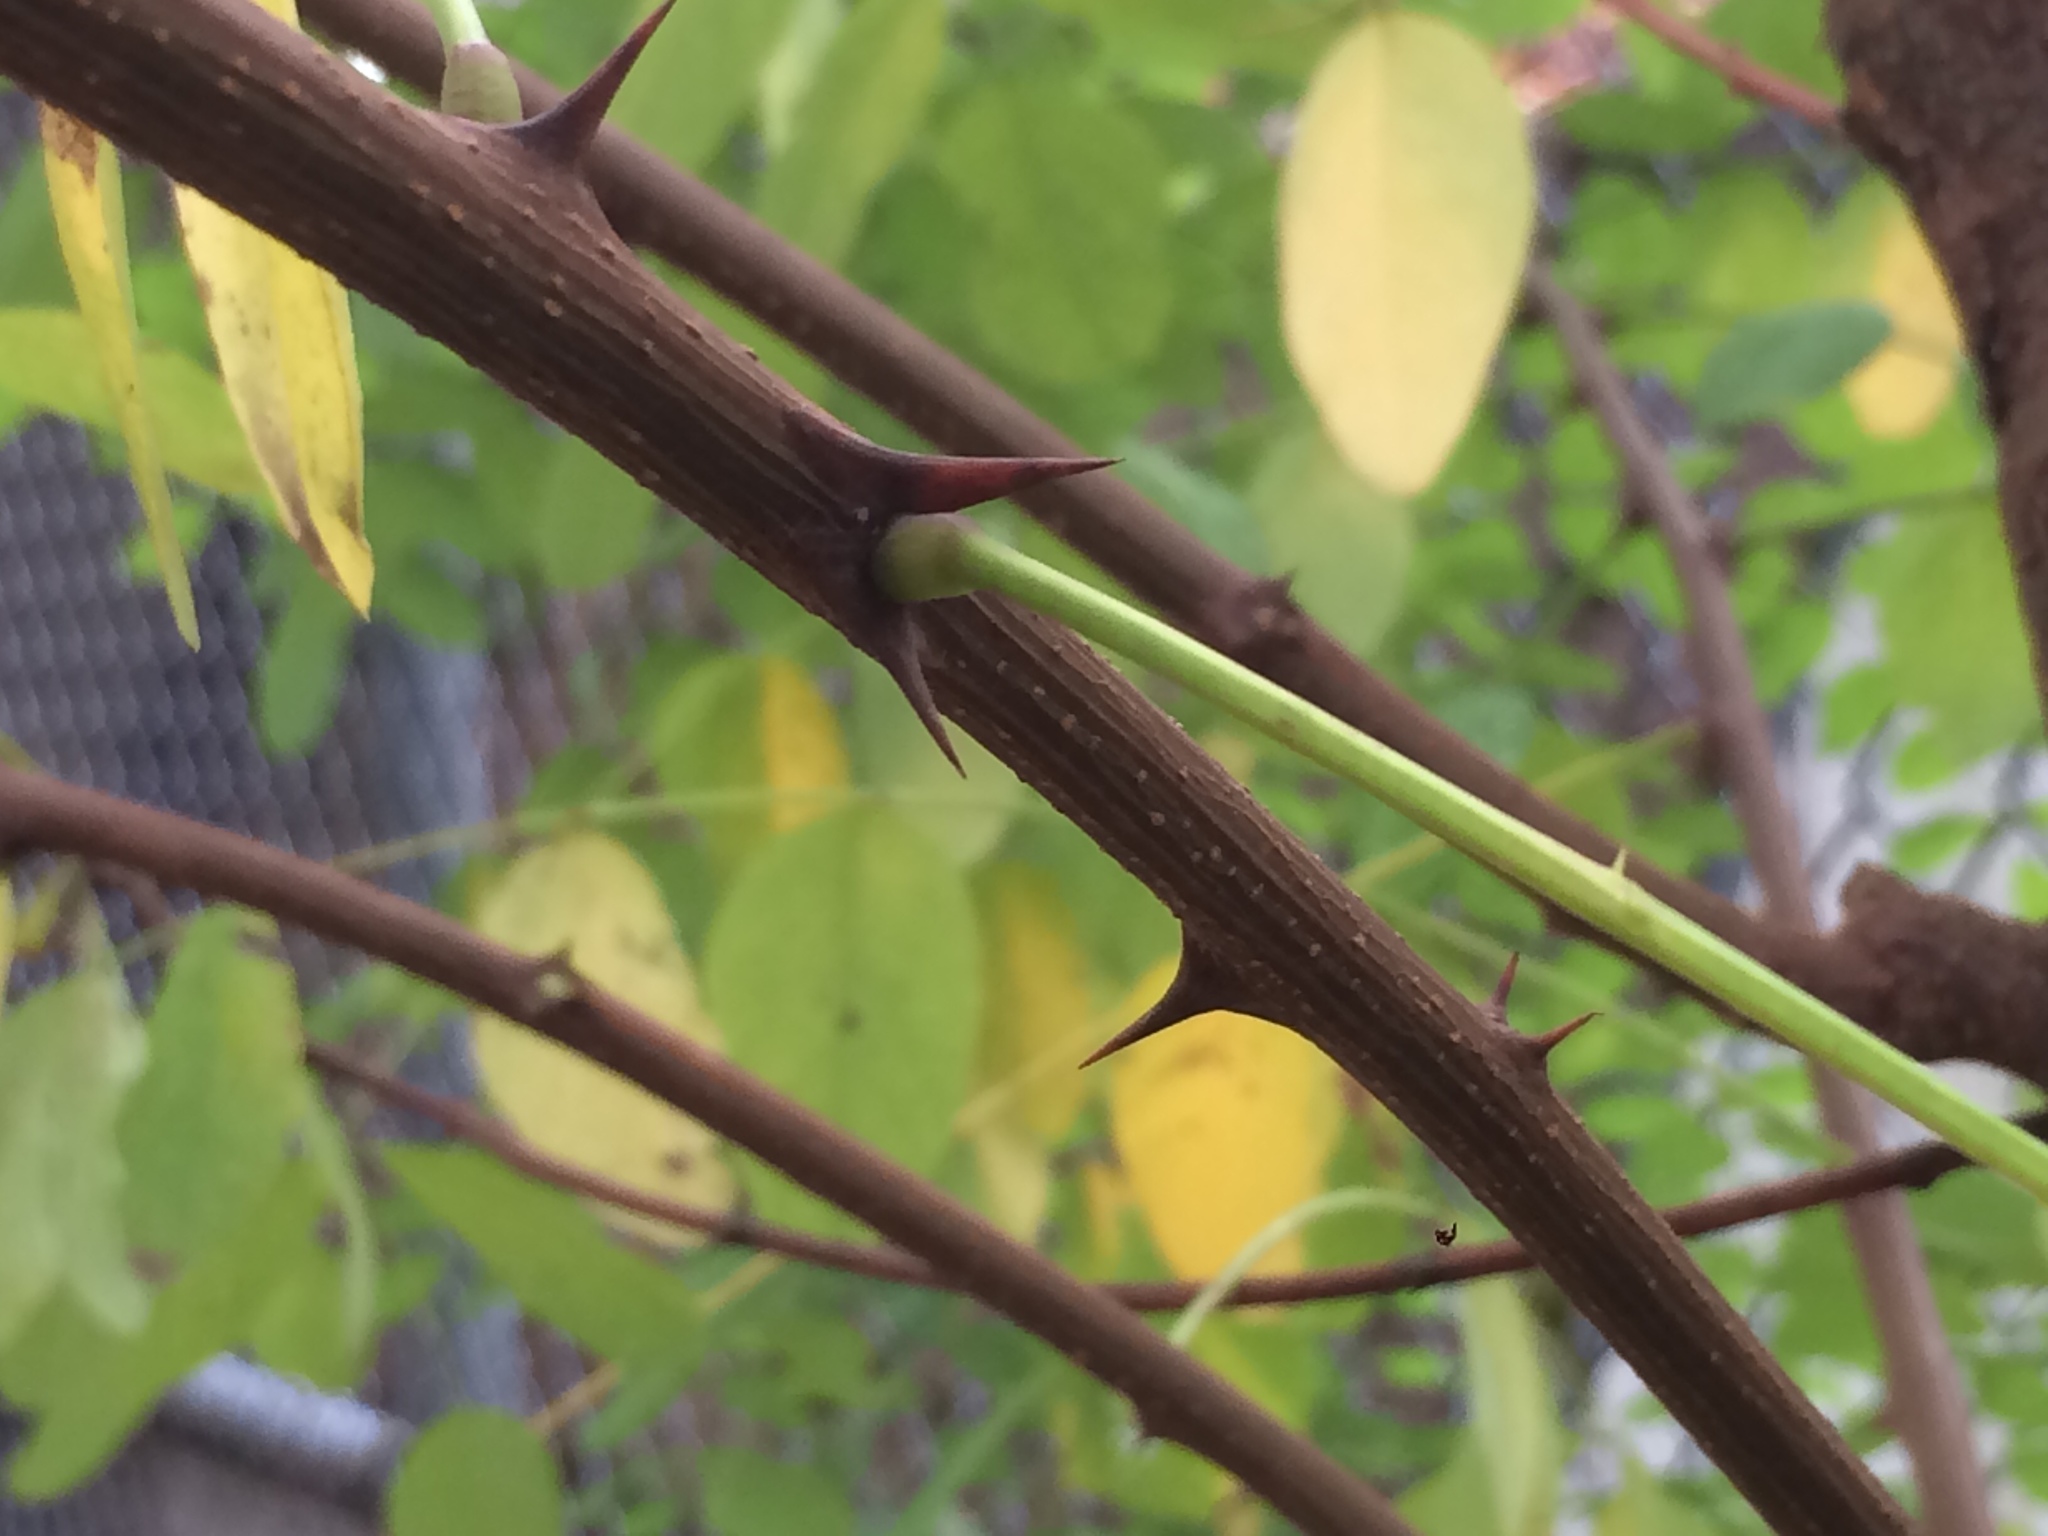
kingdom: Plantae
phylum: Tracheophyta
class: Magnoliopsida
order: Fabales
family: Fabaceae
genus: Robinia
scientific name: Robinia pseudoacacia
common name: Black locust
